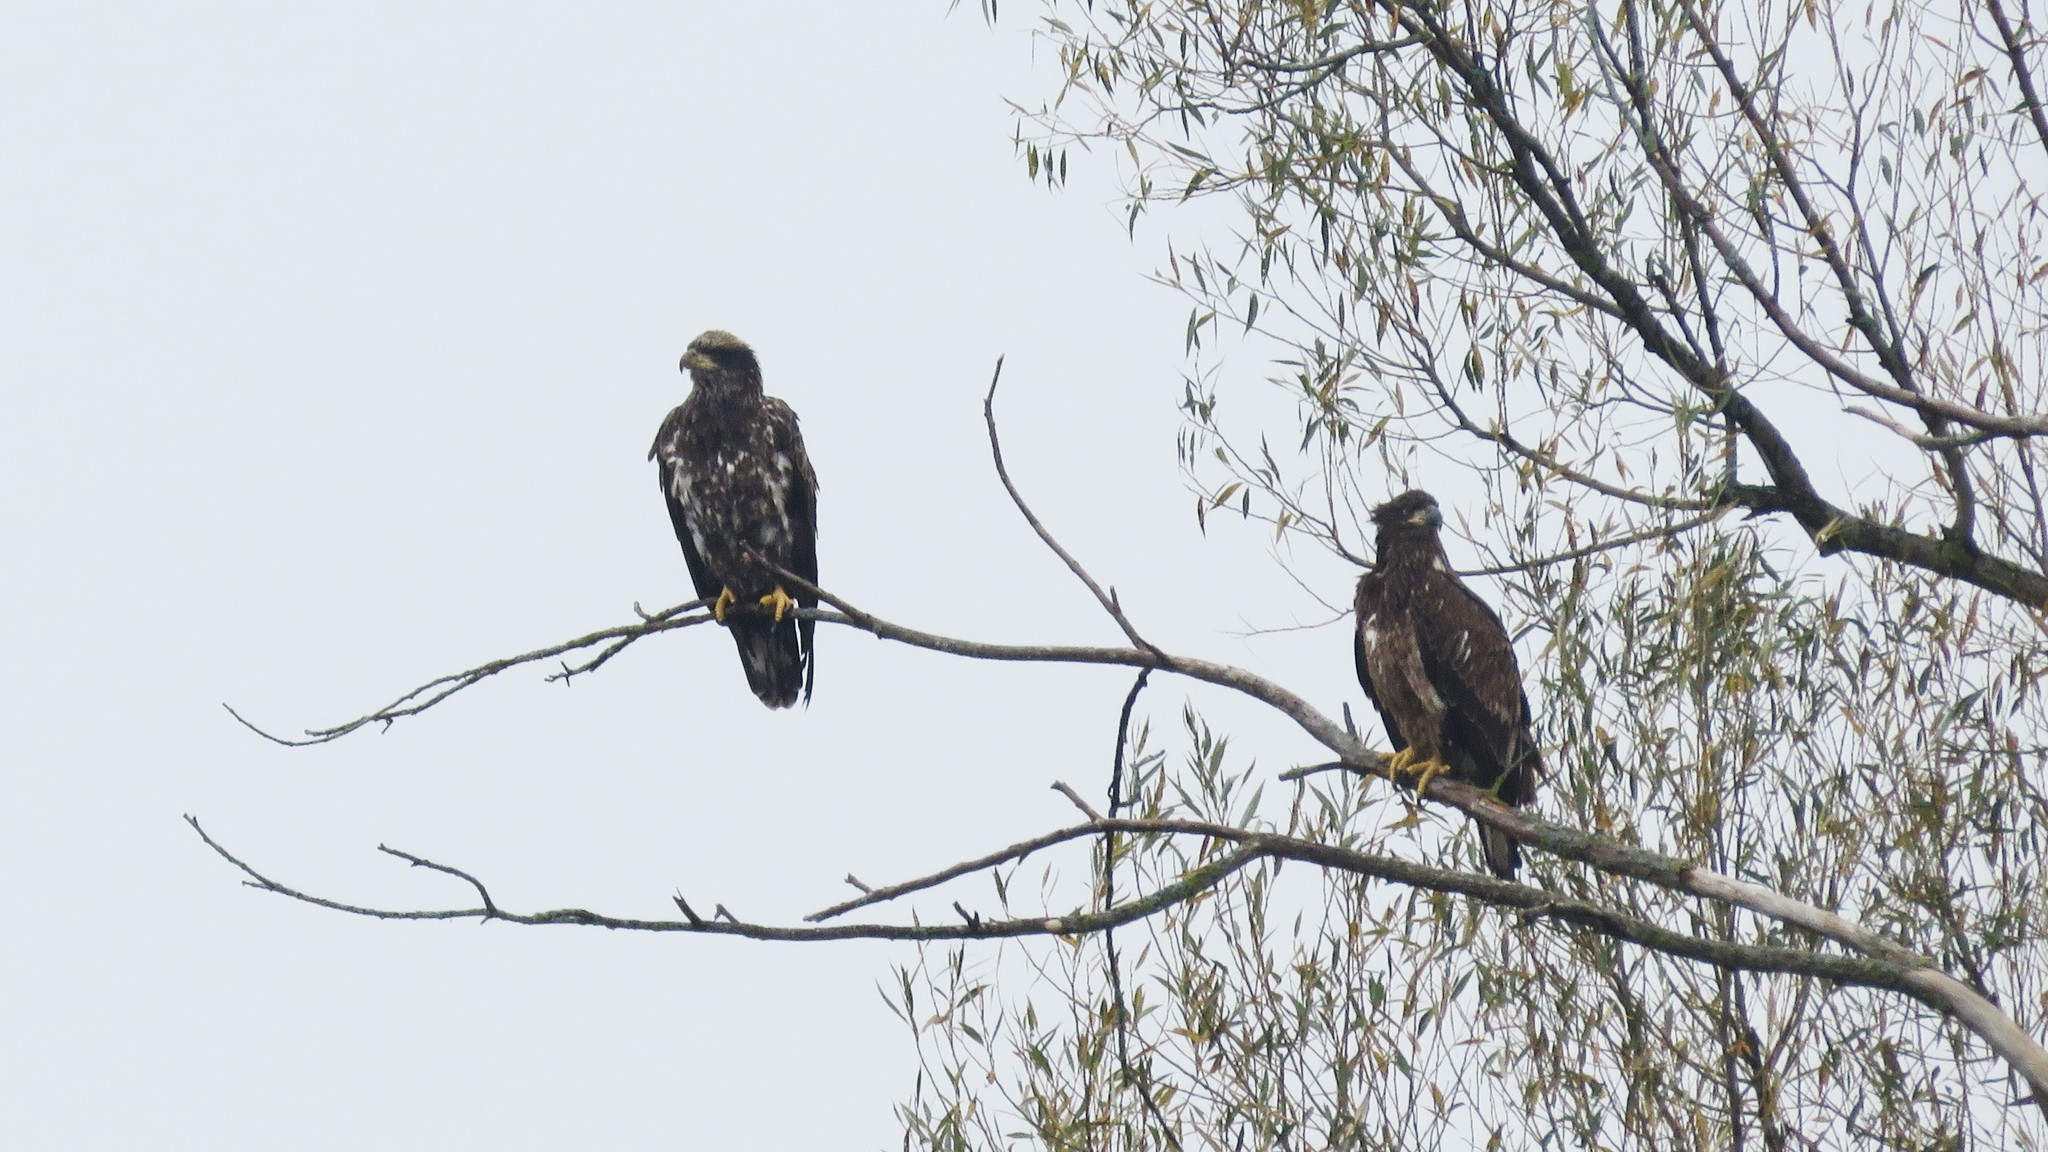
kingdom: Animalia
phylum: Chordata
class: Aves
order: Accipitriformes
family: Accipitridae
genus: Haliaeetus
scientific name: Haliaeetus leucocephalus
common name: Bald eagle
